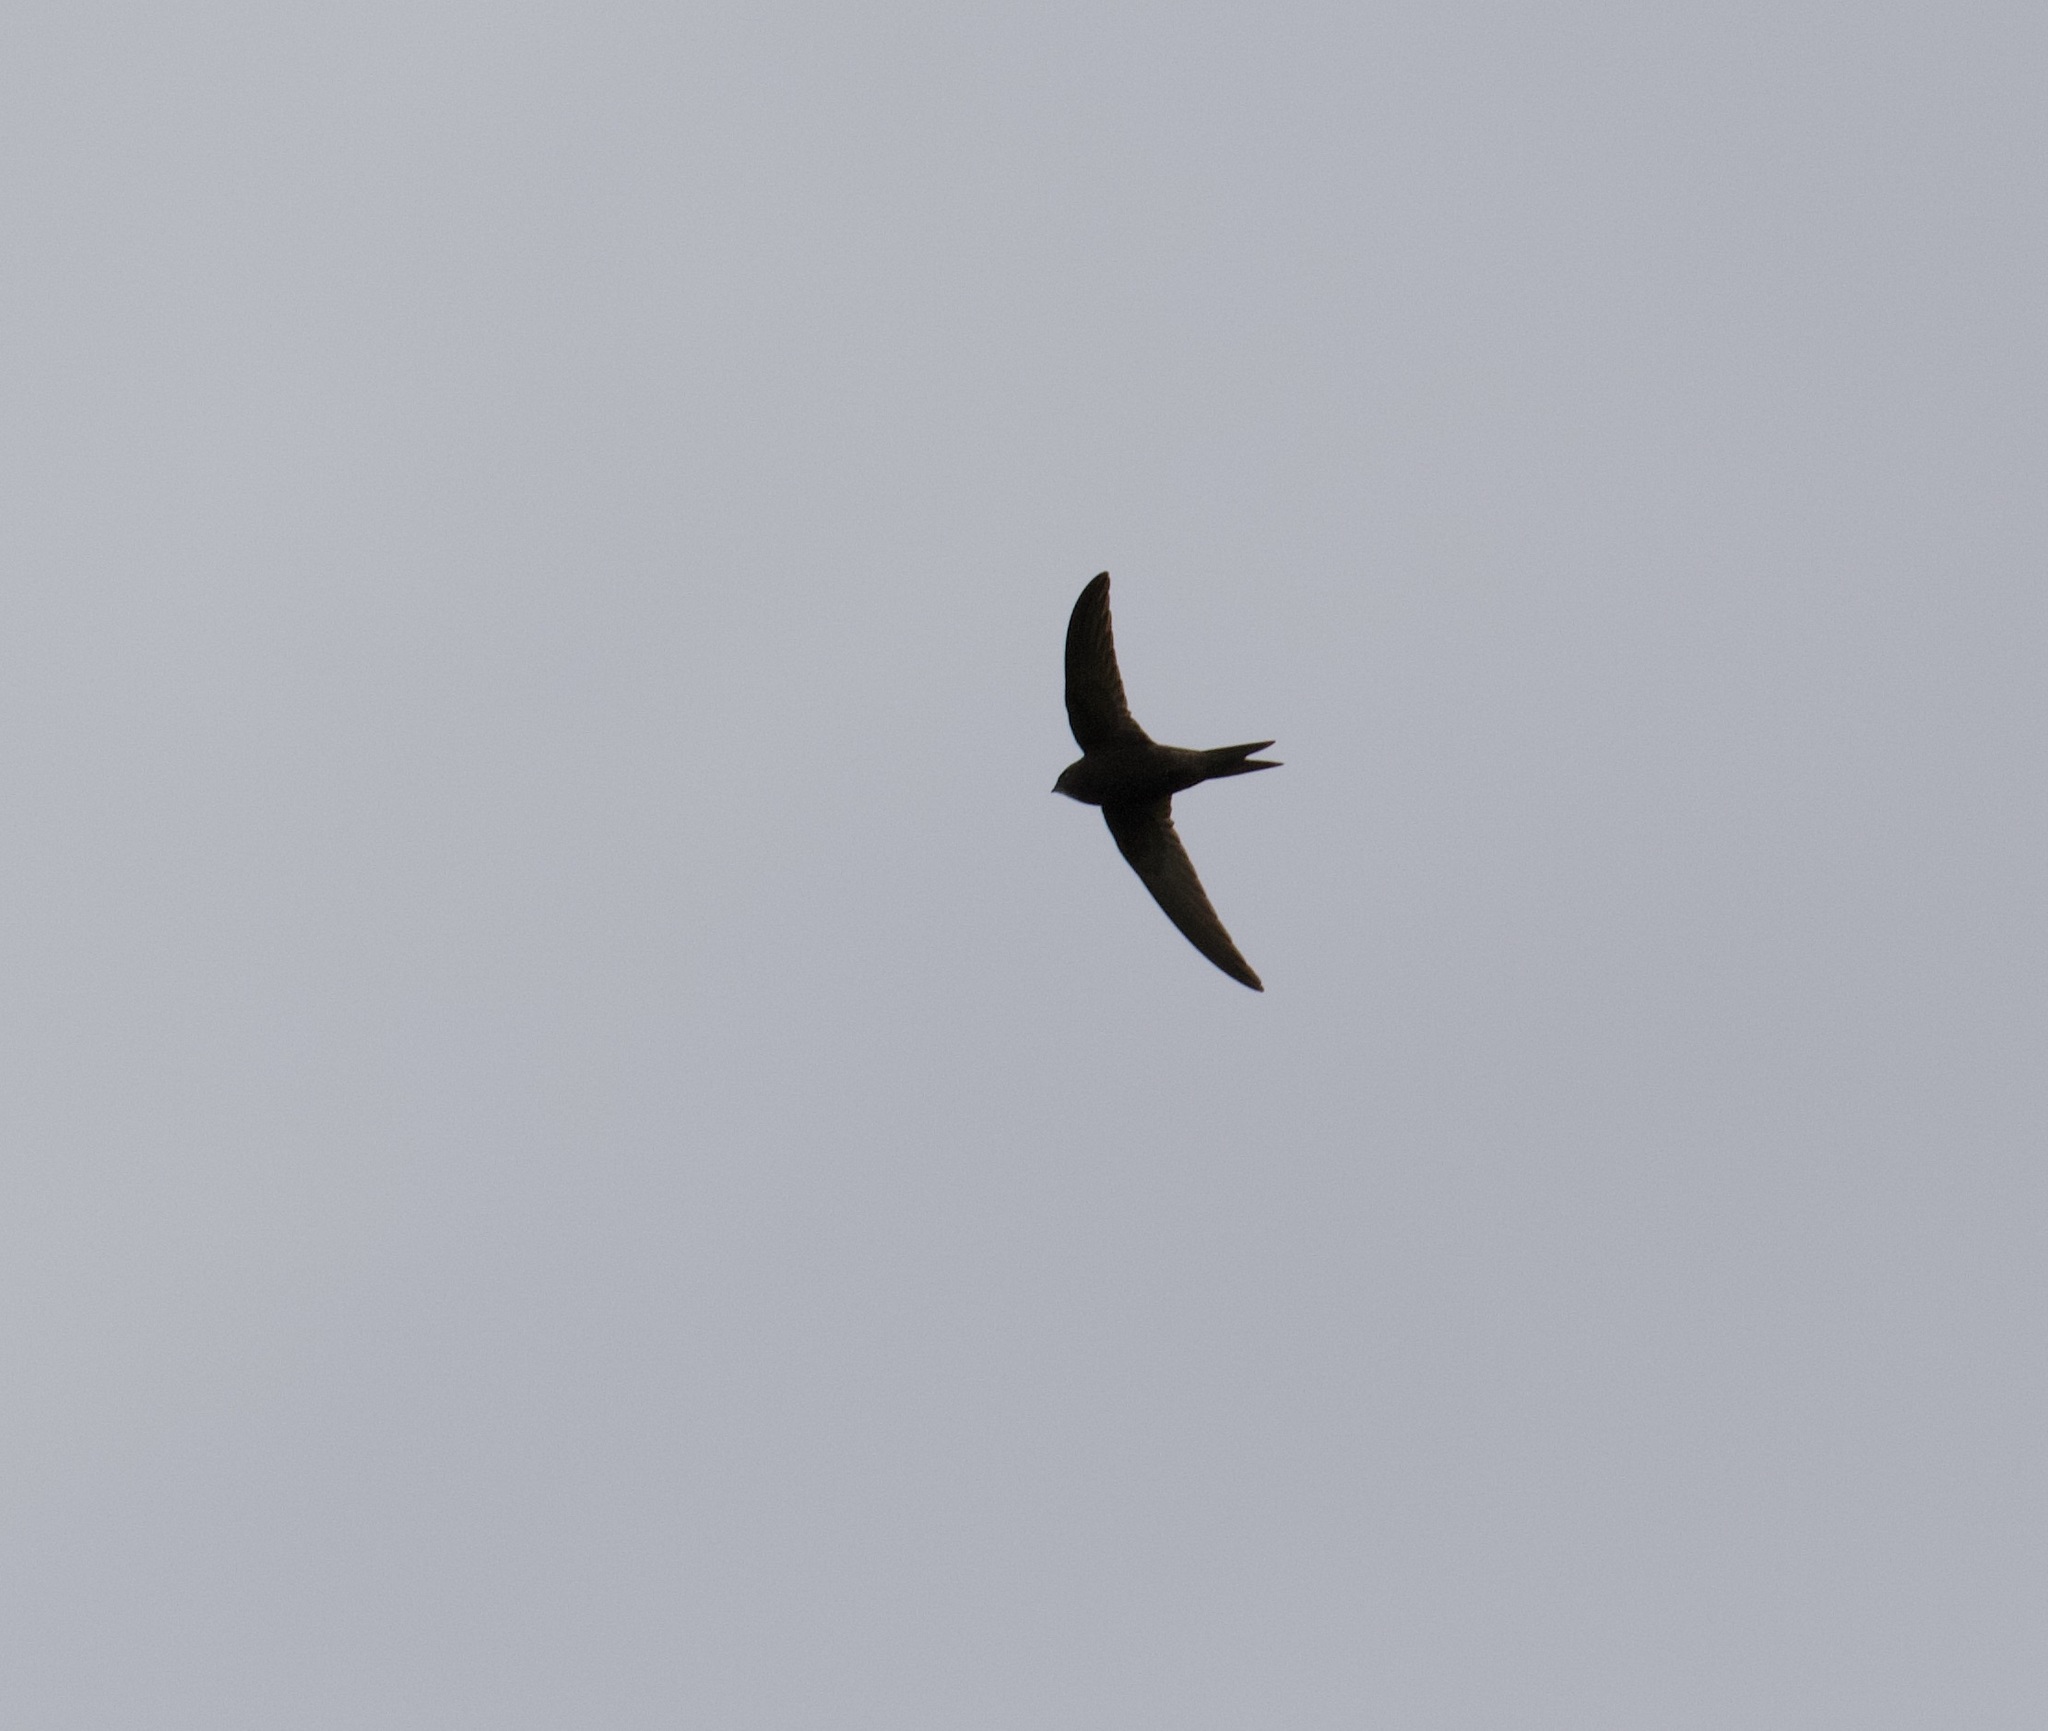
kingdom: Animalia
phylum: Chordata
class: Aves
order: Apodiformes
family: Apodidae
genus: Apus
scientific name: Apus apus
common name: Common swift
